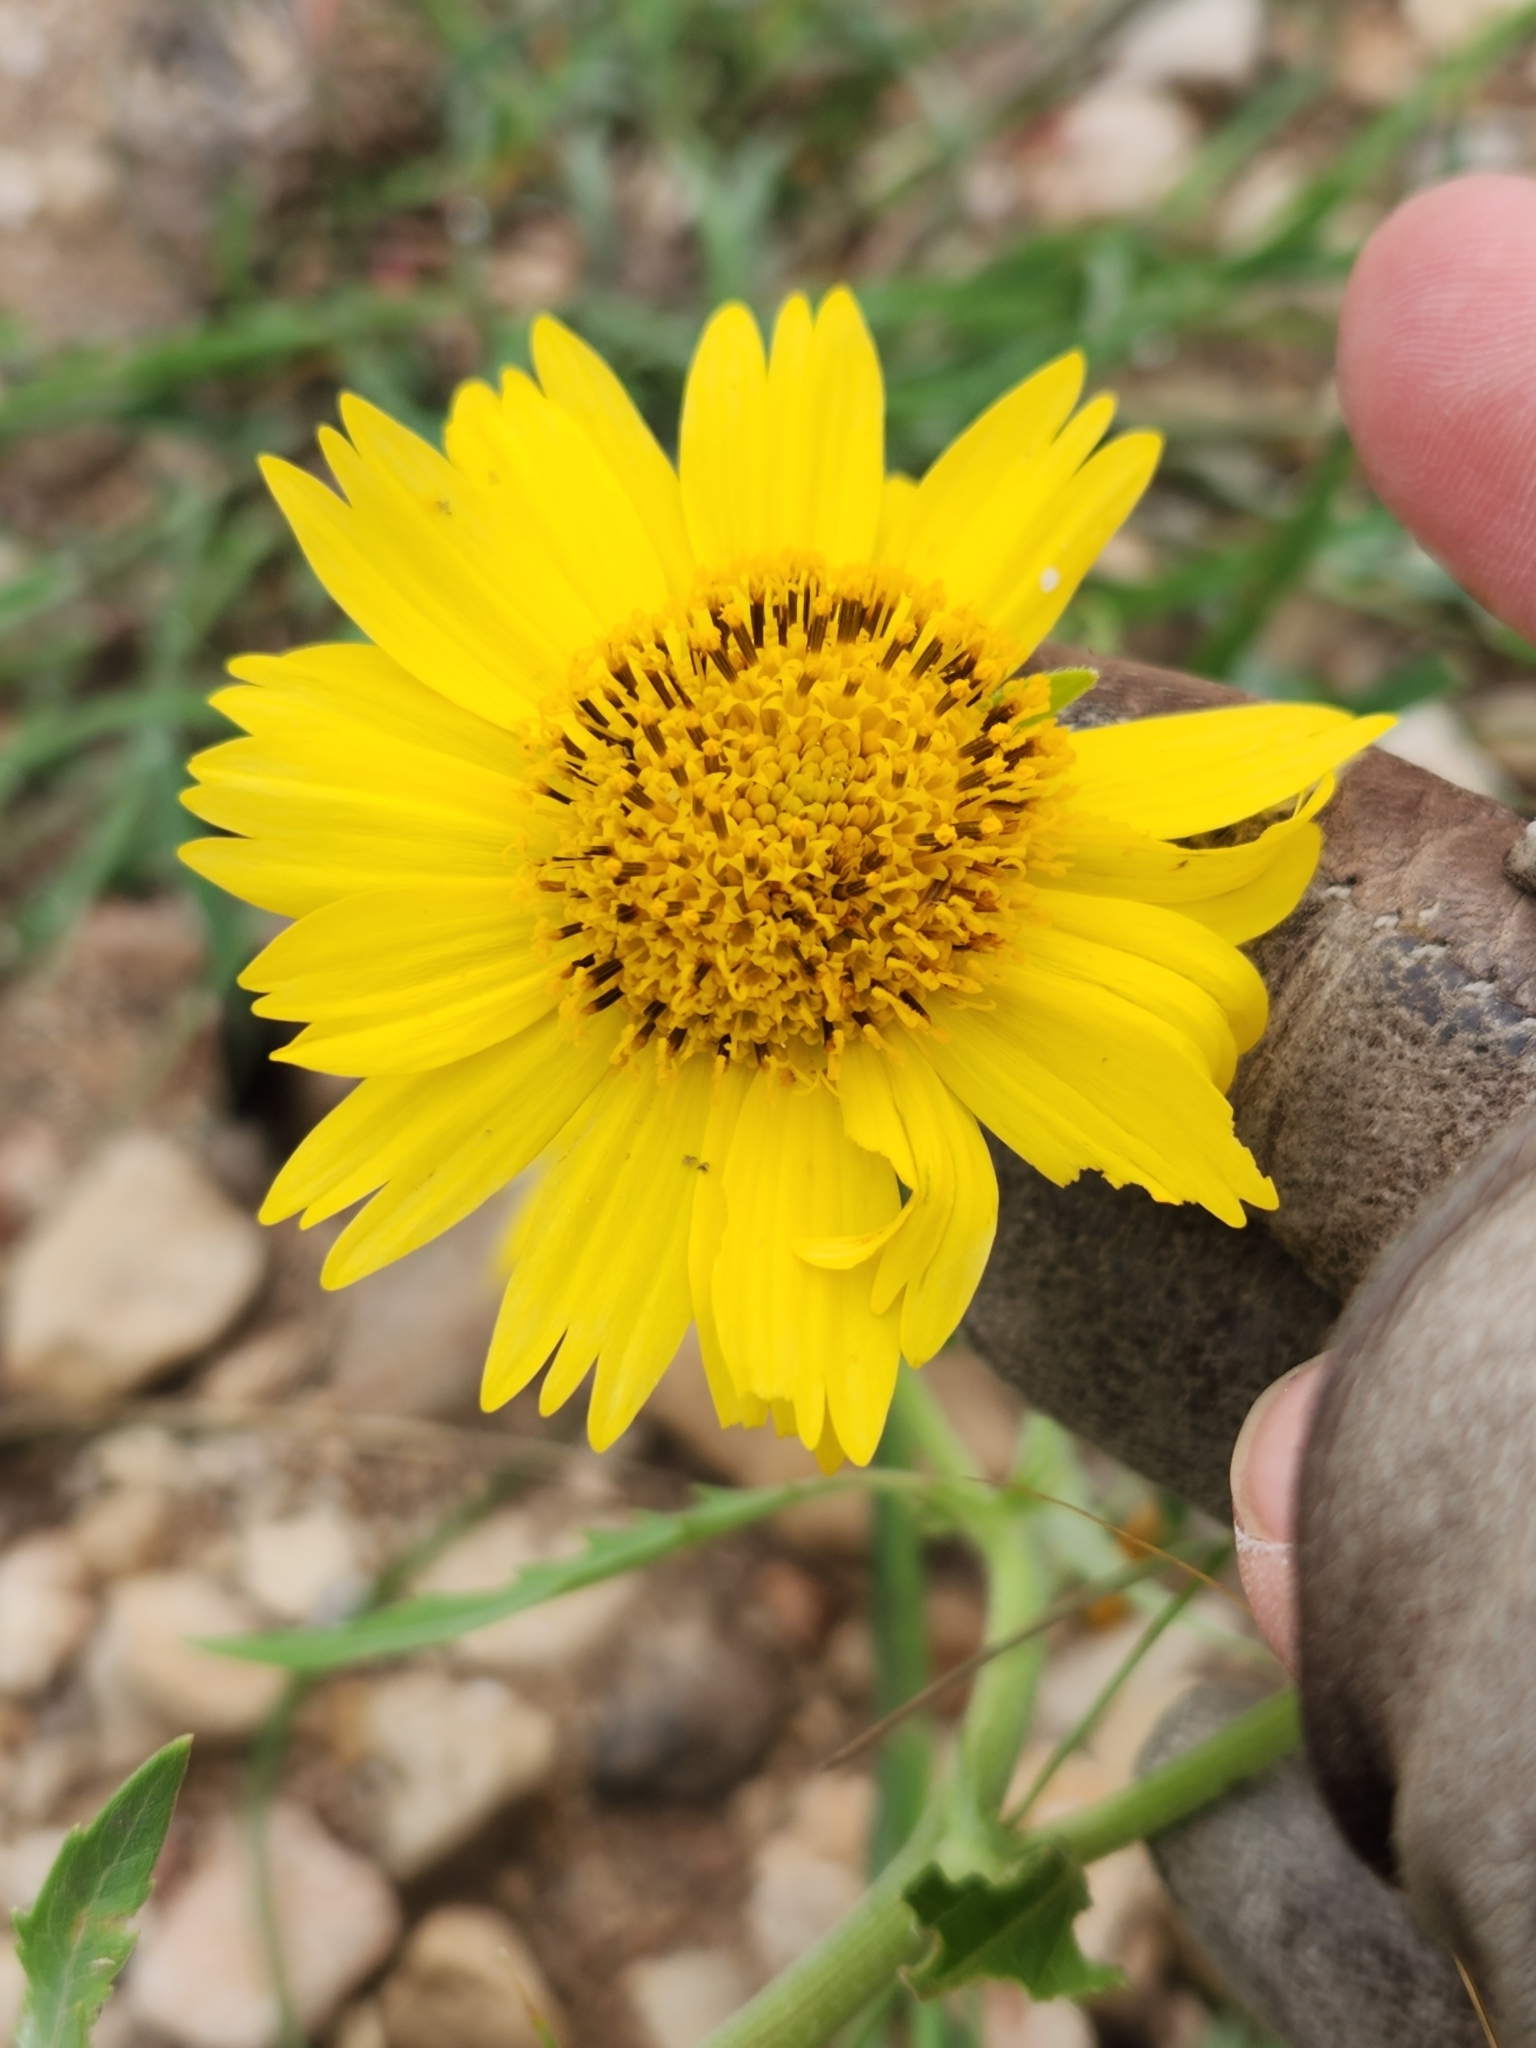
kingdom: Plantae
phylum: Tracheophyta
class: Magnoliopsida
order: Asterales
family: Asteraceae
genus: Verbesina
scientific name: Verbesina encelioides
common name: Golden crownbeard
